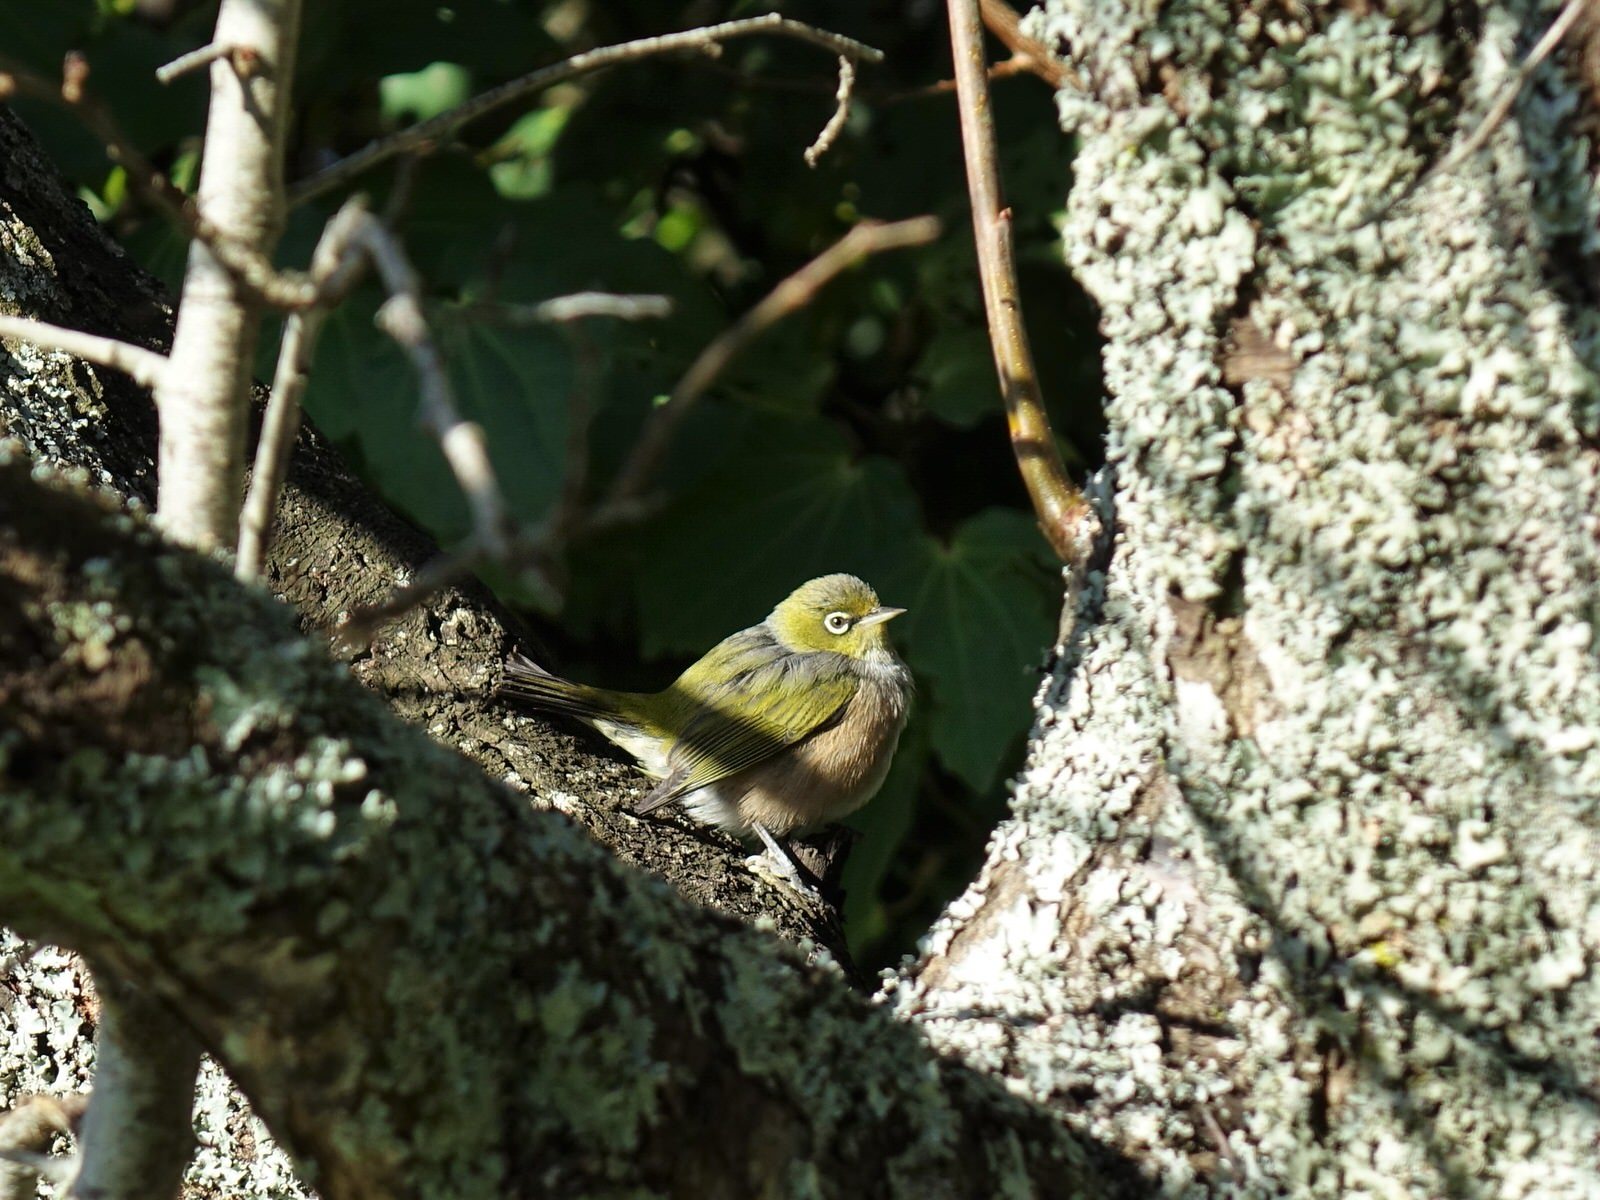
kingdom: Animalia
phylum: Chordata
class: Aves
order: Passeriformes
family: Zosteropidae
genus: Zosterops
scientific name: Zosterops lateralis
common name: Silvereye
